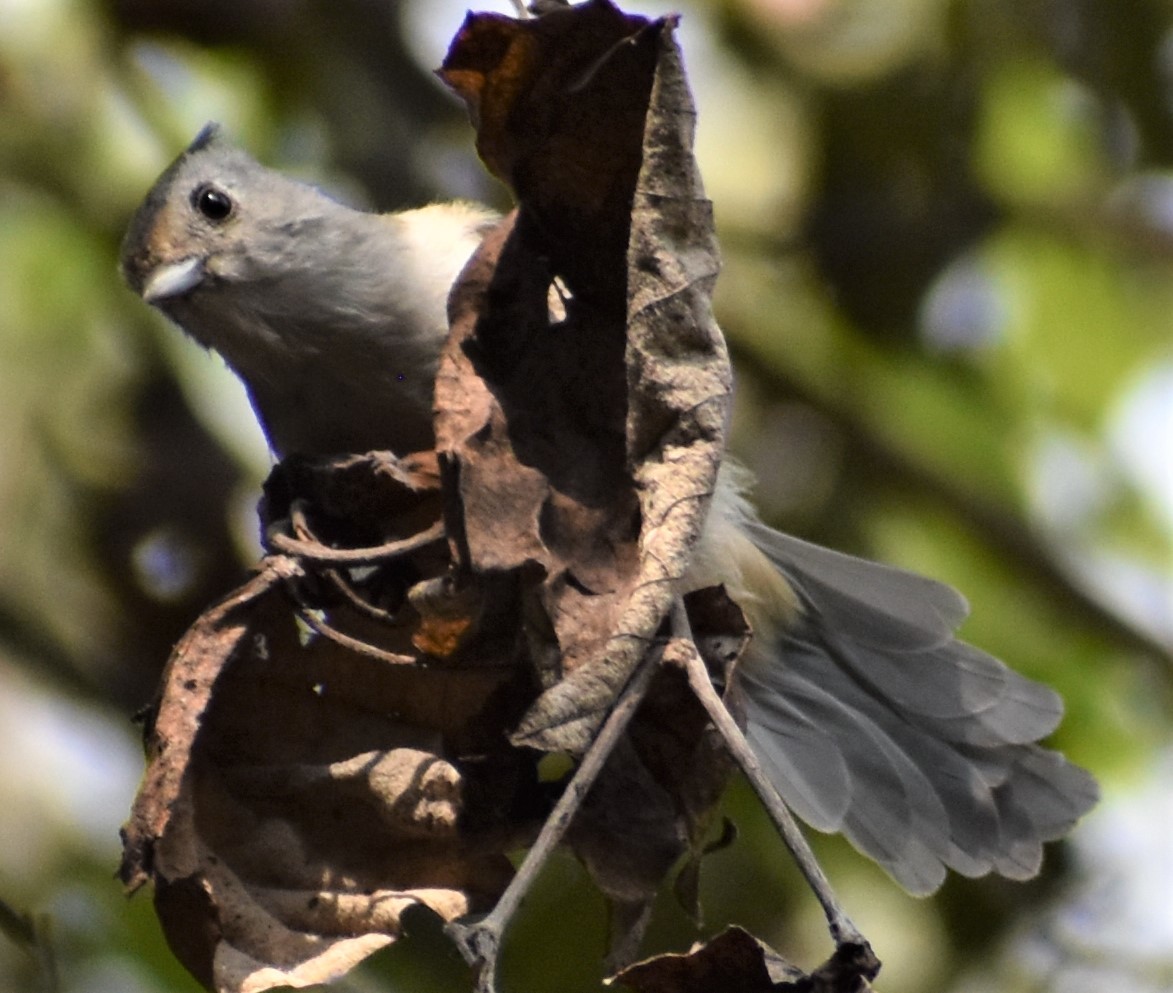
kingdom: Animalia
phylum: Chordata
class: Aves
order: Passeriformes
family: Paridae
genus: Baeolophus
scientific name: Baeolophus
